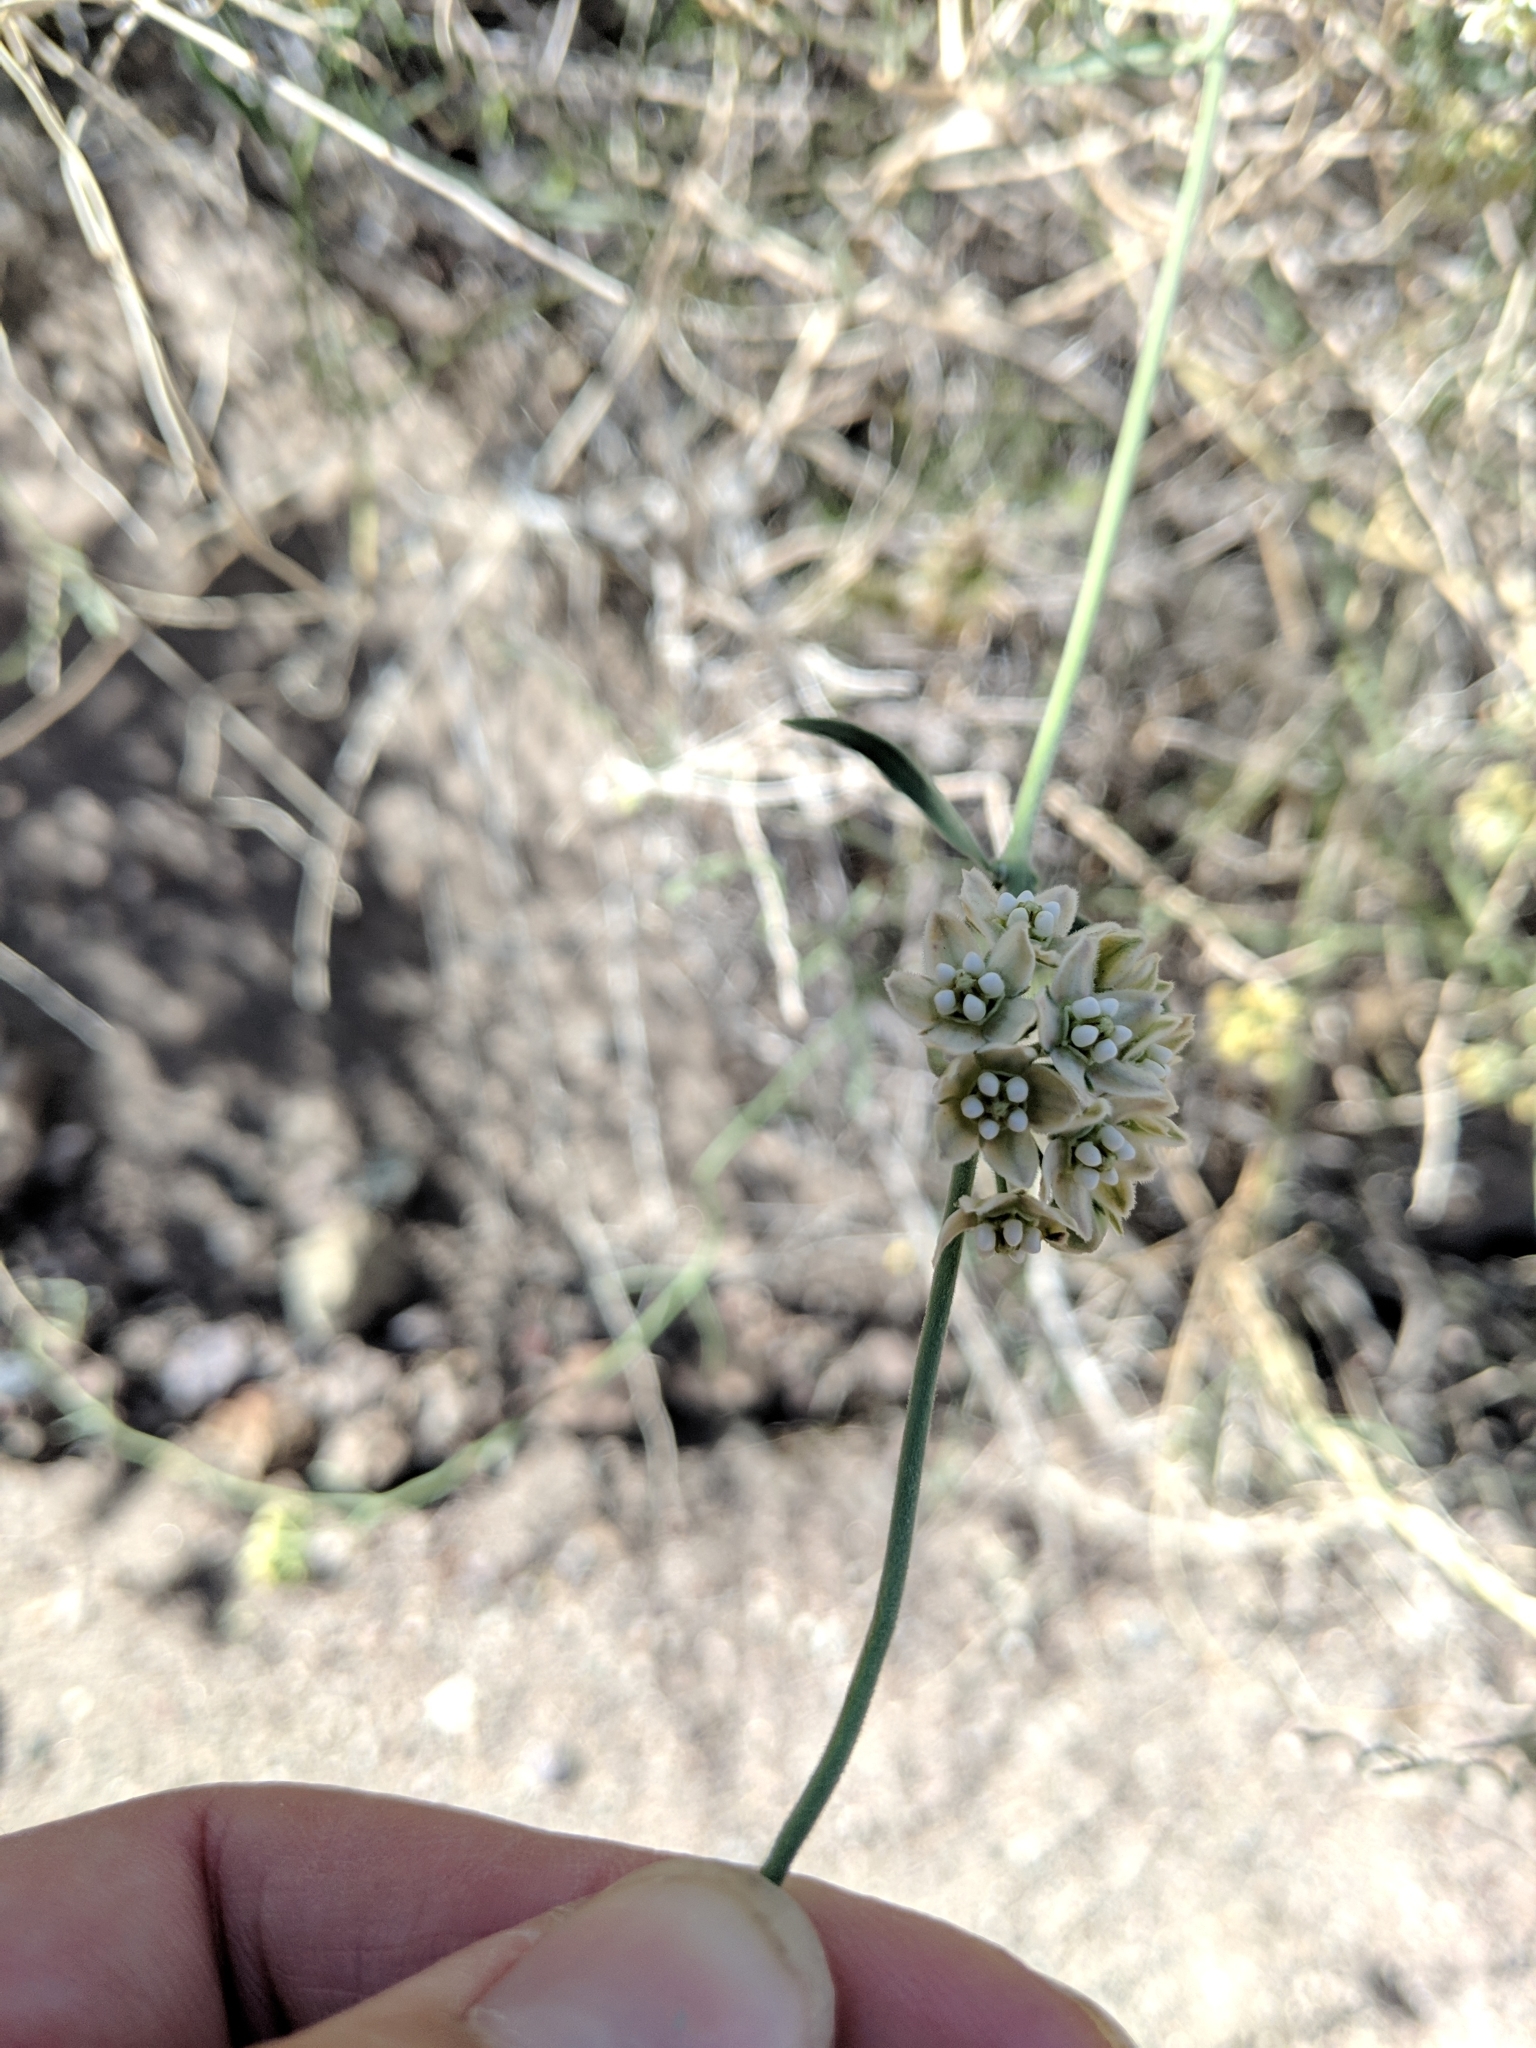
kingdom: Plantae
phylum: Tracheophyta
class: Magnoliopsida
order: Gentianales
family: Apocynaceae
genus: Funastrum
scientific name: Funastrum hirtellum
